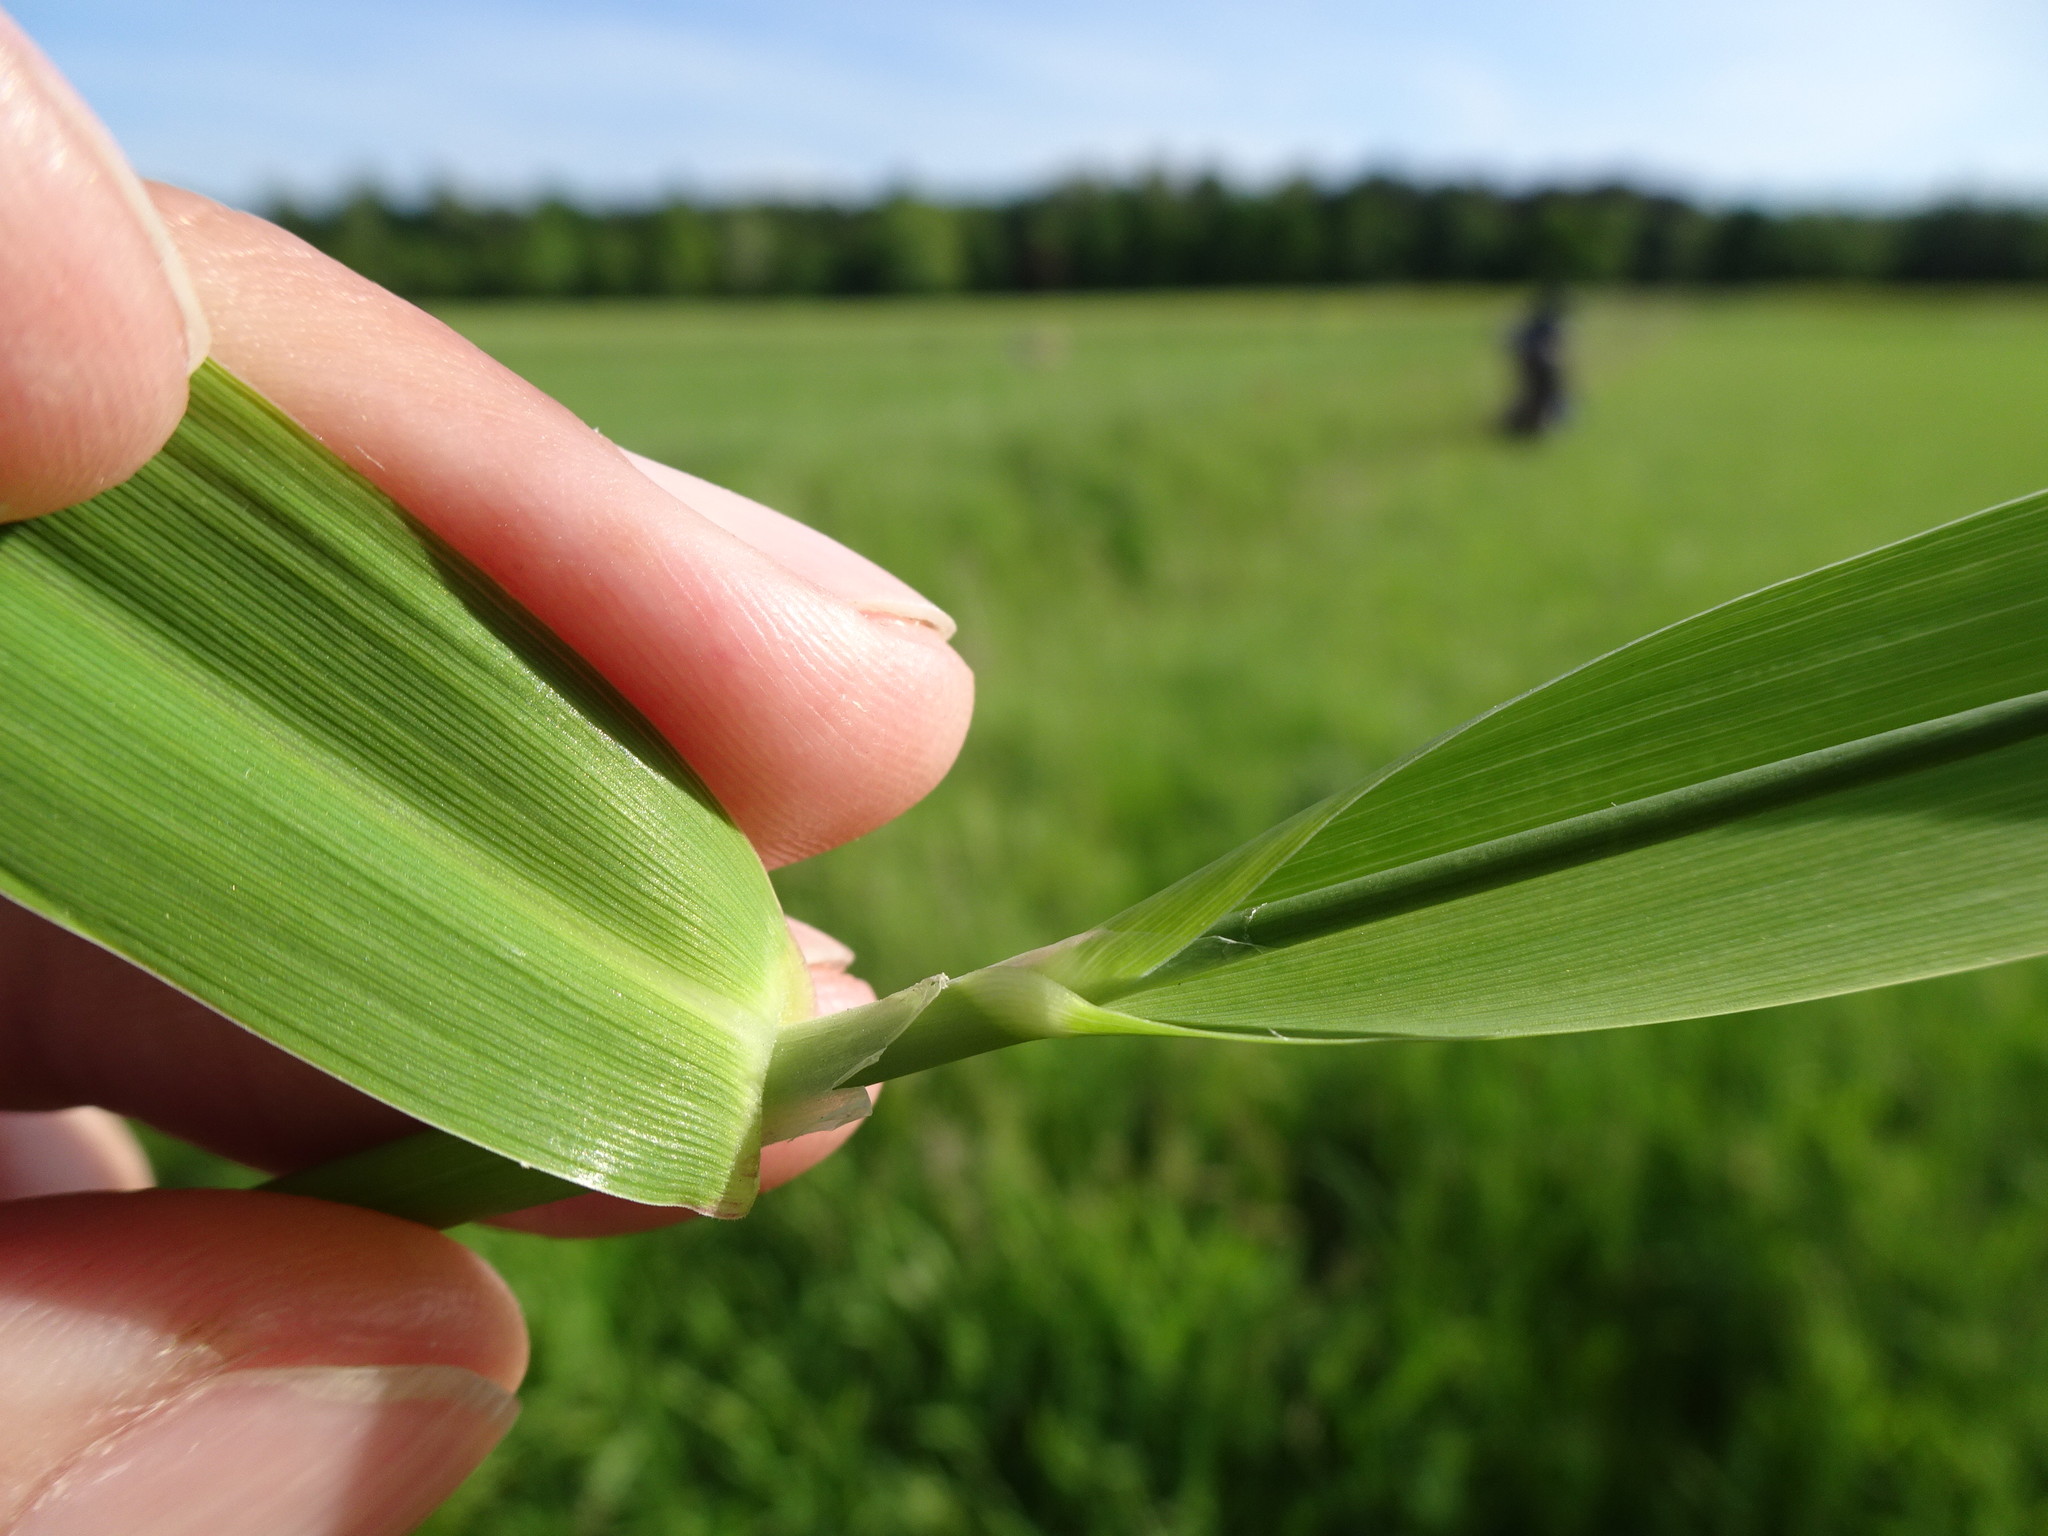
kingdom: Plantae
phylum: Tracheophyta
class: Liliopsida
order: Poales
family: Poaceae
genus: Phalaris
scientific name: Phalaris arundinacea
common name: Reed canary-grass
